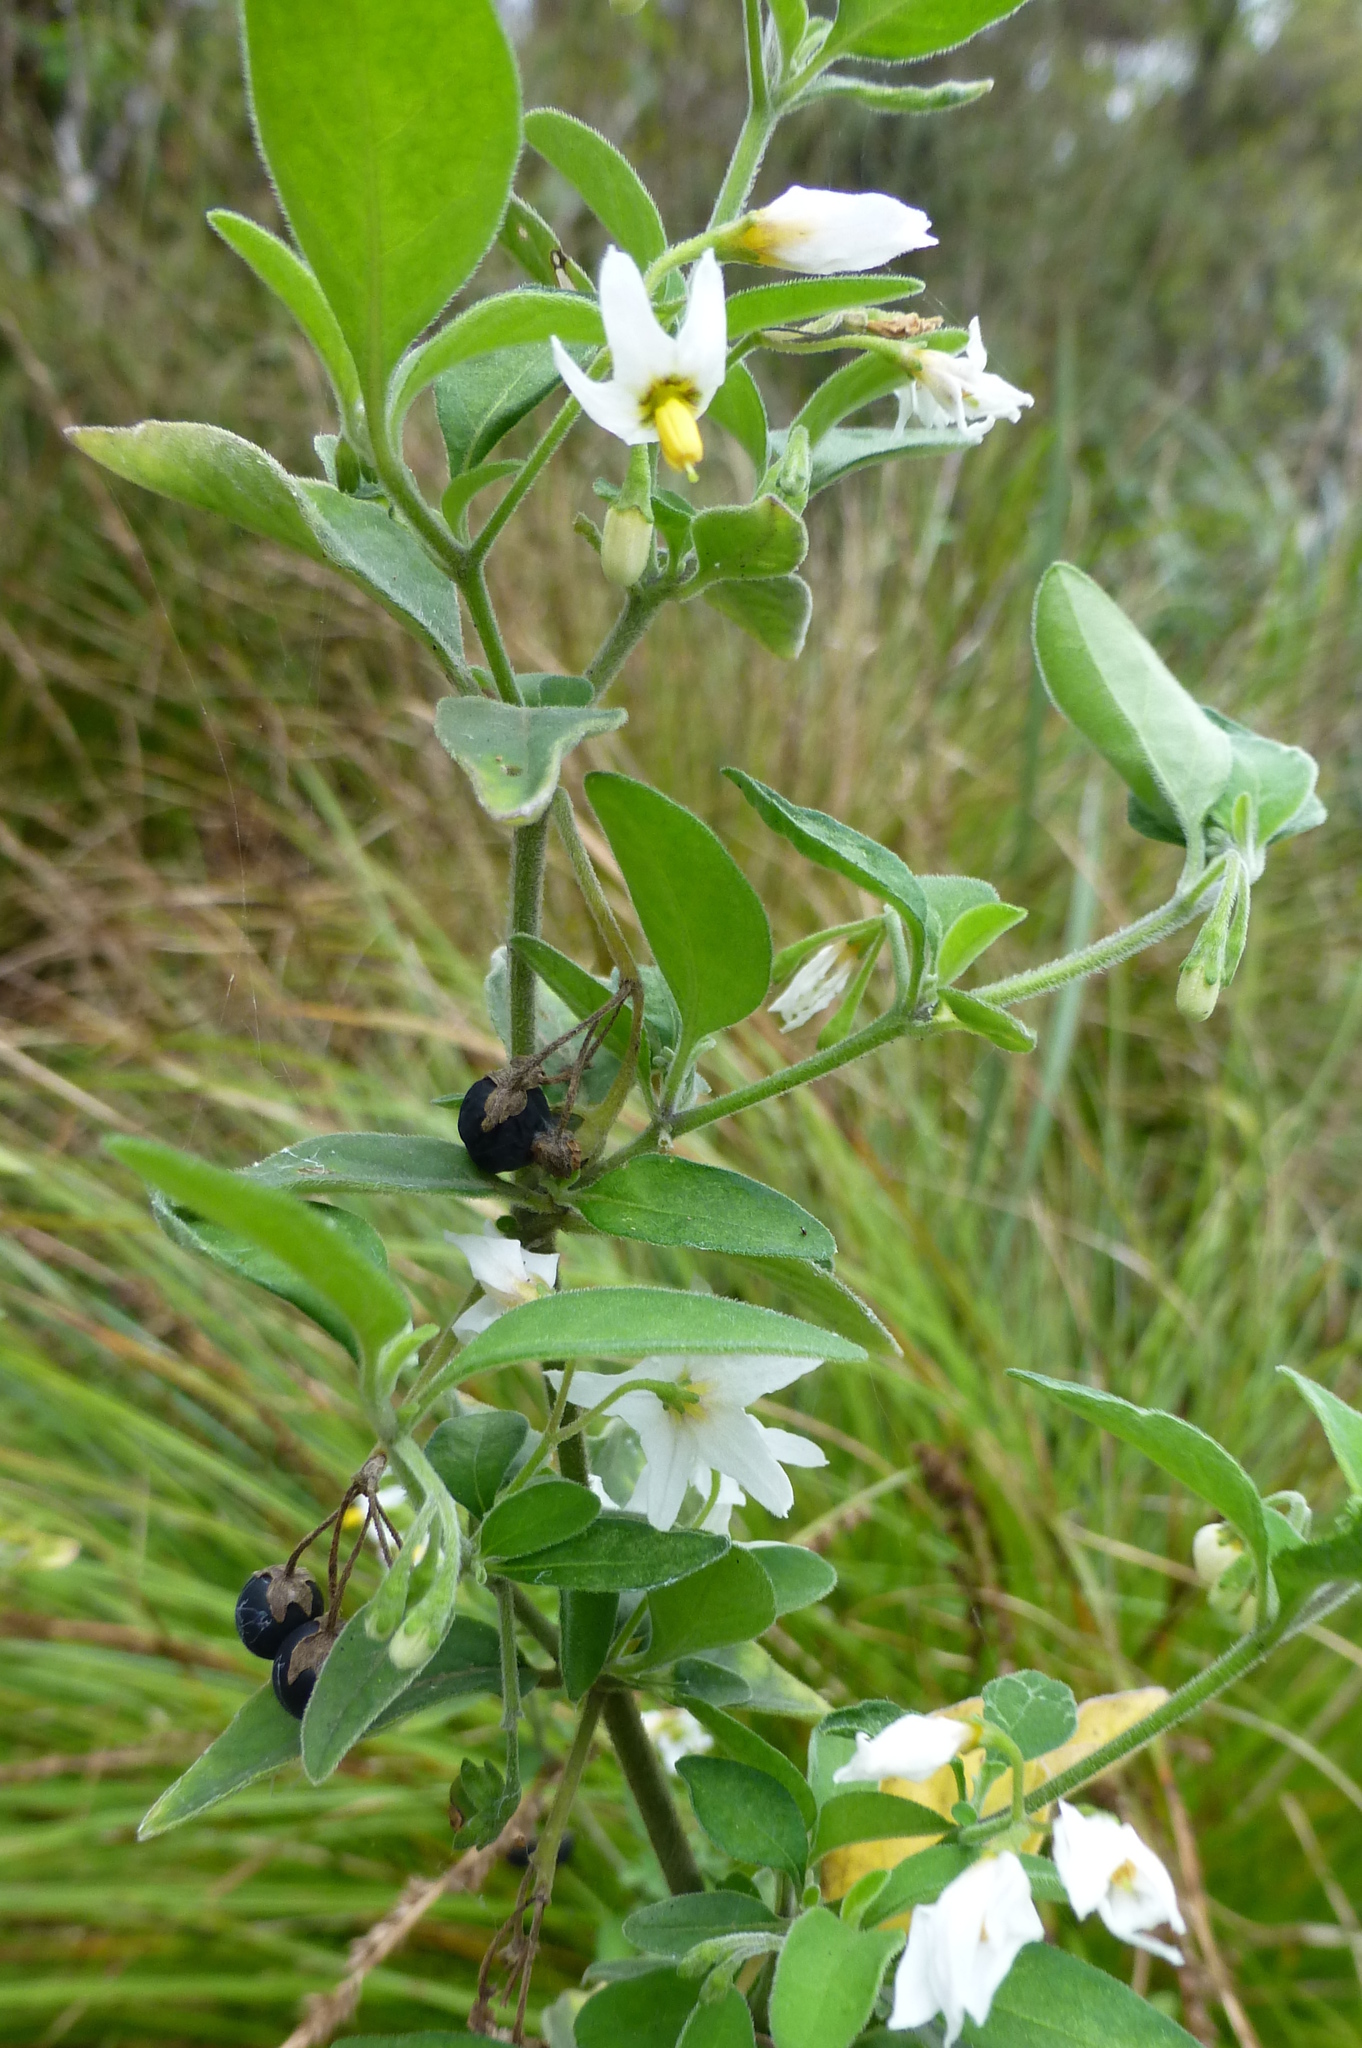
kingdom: Plantae
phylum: Tracheophyta
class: Magnoliopsida
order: Solanales
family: Solanaceae
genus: Solanum
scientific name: Solanum chenopodioides
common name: Tall nightshade
